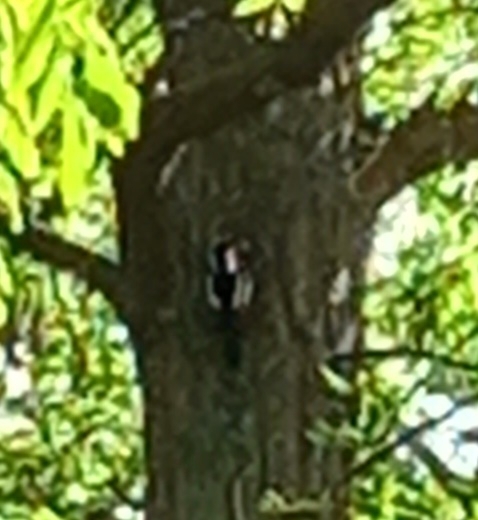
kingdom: Animalia
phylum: Chordata
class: Aves
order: Piciformes
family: Picidae
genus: Dendrocopos
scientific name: Dendrocopos major
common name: Great spotted woodpecker
